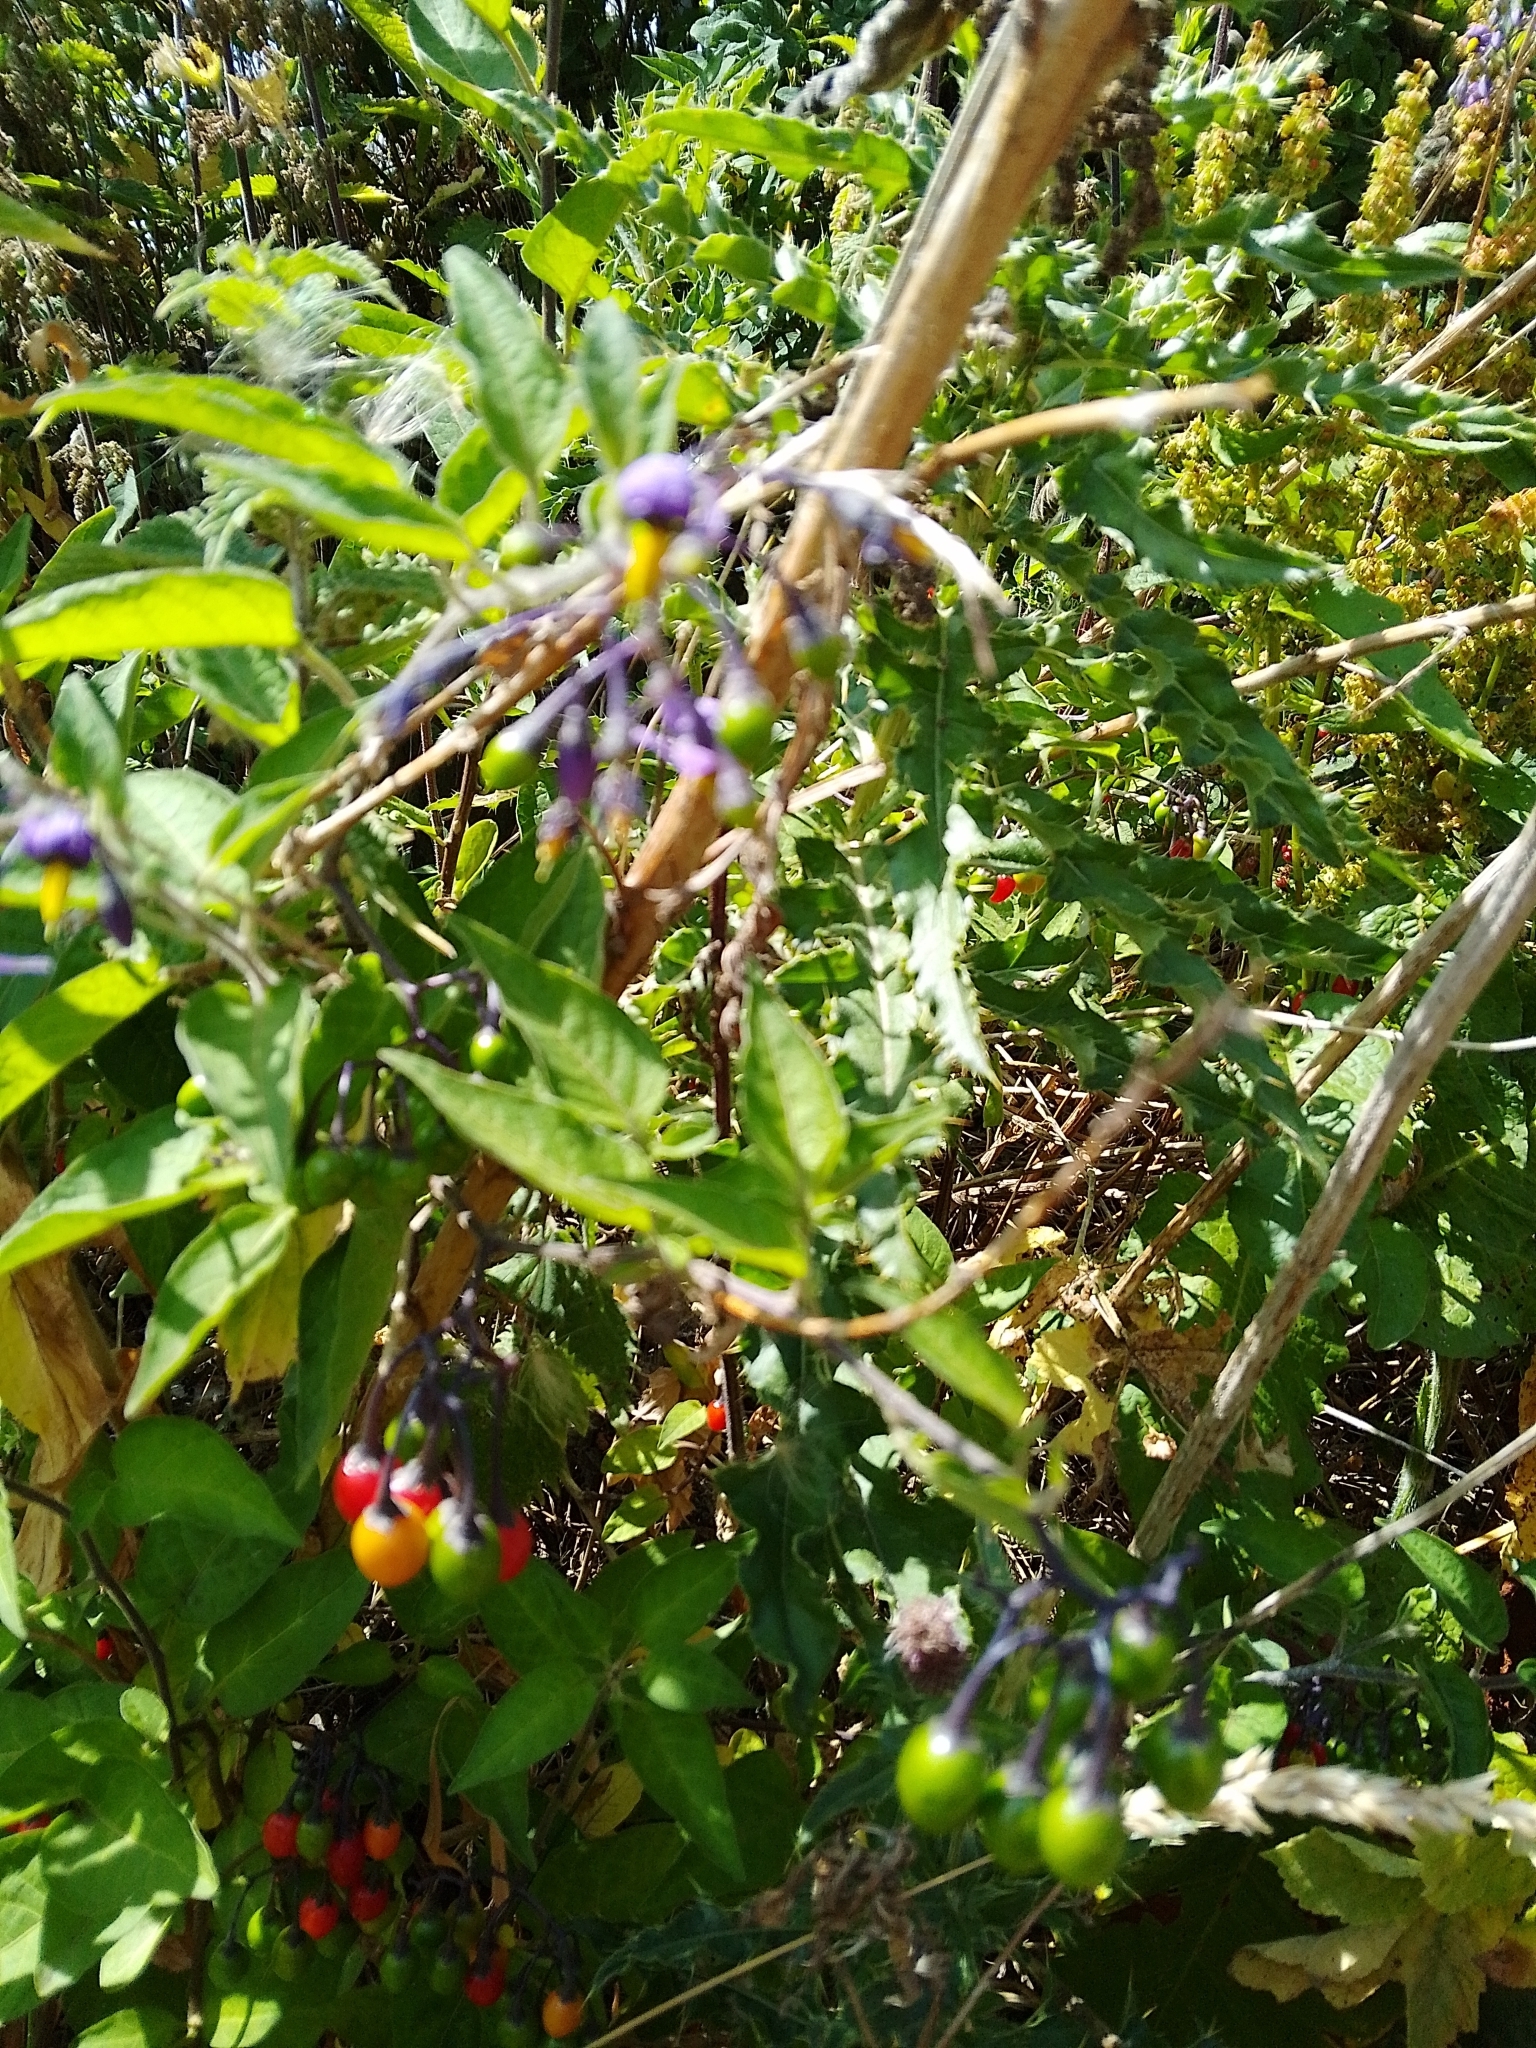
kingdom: Plantae
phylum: Tracheophyta
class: Magnoliopsida
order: Solanales
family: Solanaceae
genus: Solanum
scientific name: Solanum dulcamara
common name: Climbing nightshade
